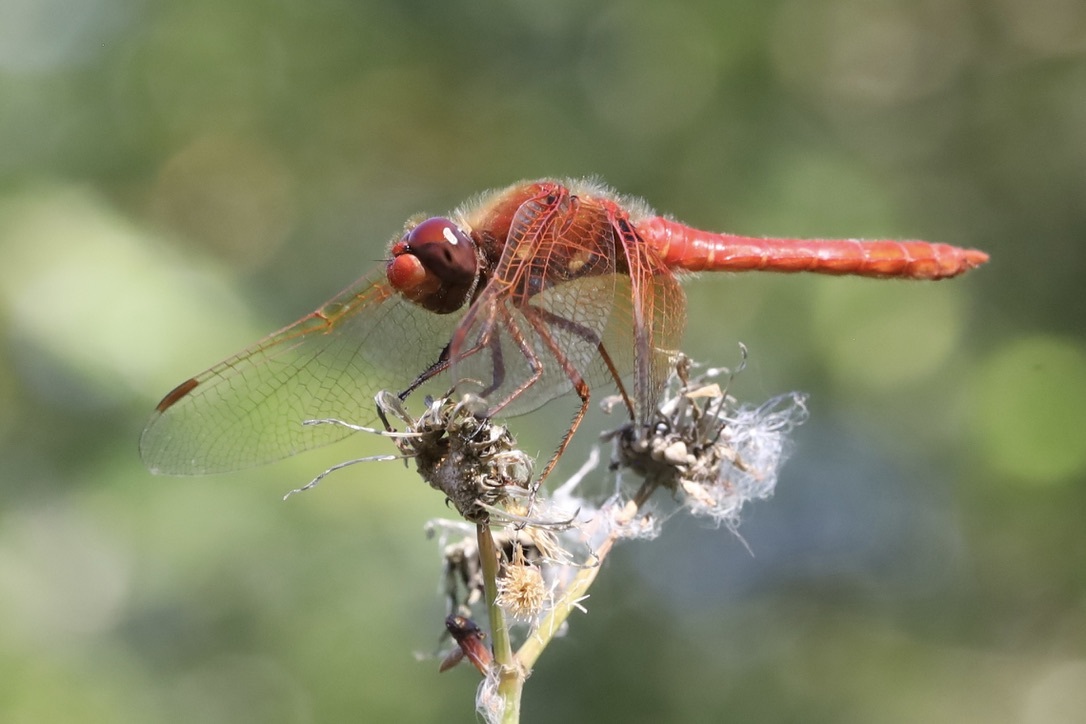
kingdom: Animalia
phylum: Arthropoda
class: Insecta
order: Odonata
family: Libellulidae
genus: Sympetrum
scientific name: Sympetrum illotum
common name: Cardinal meadowhawk
